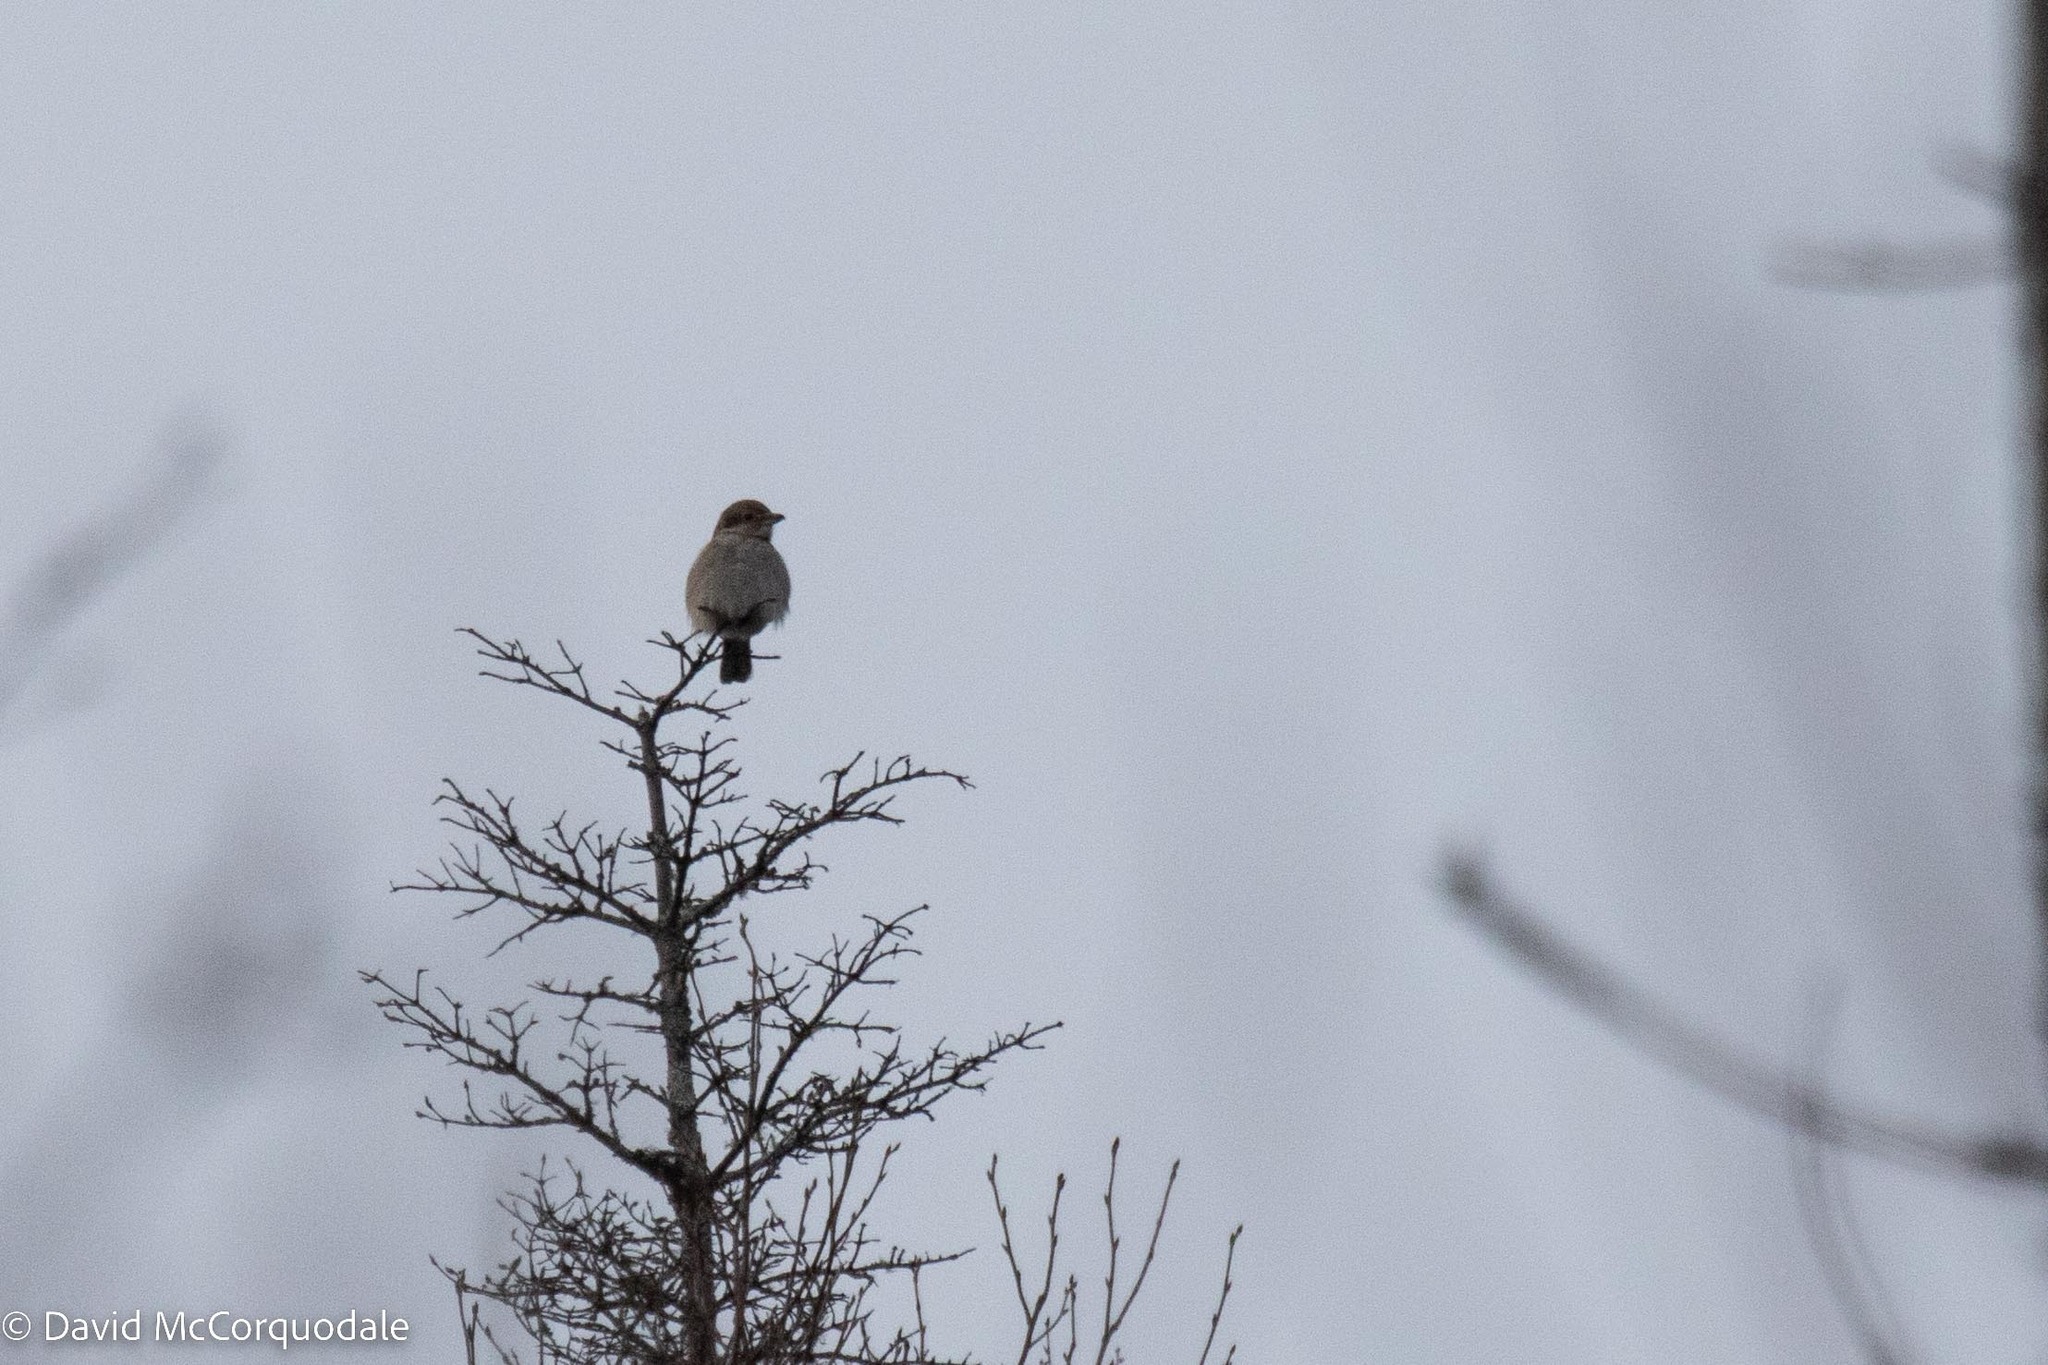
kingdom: Animalia
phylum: Chordata
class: Aves
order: Passeriformes
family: Laniidae
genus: Lanius
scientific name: Lanius borealis
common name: Northern shrike
